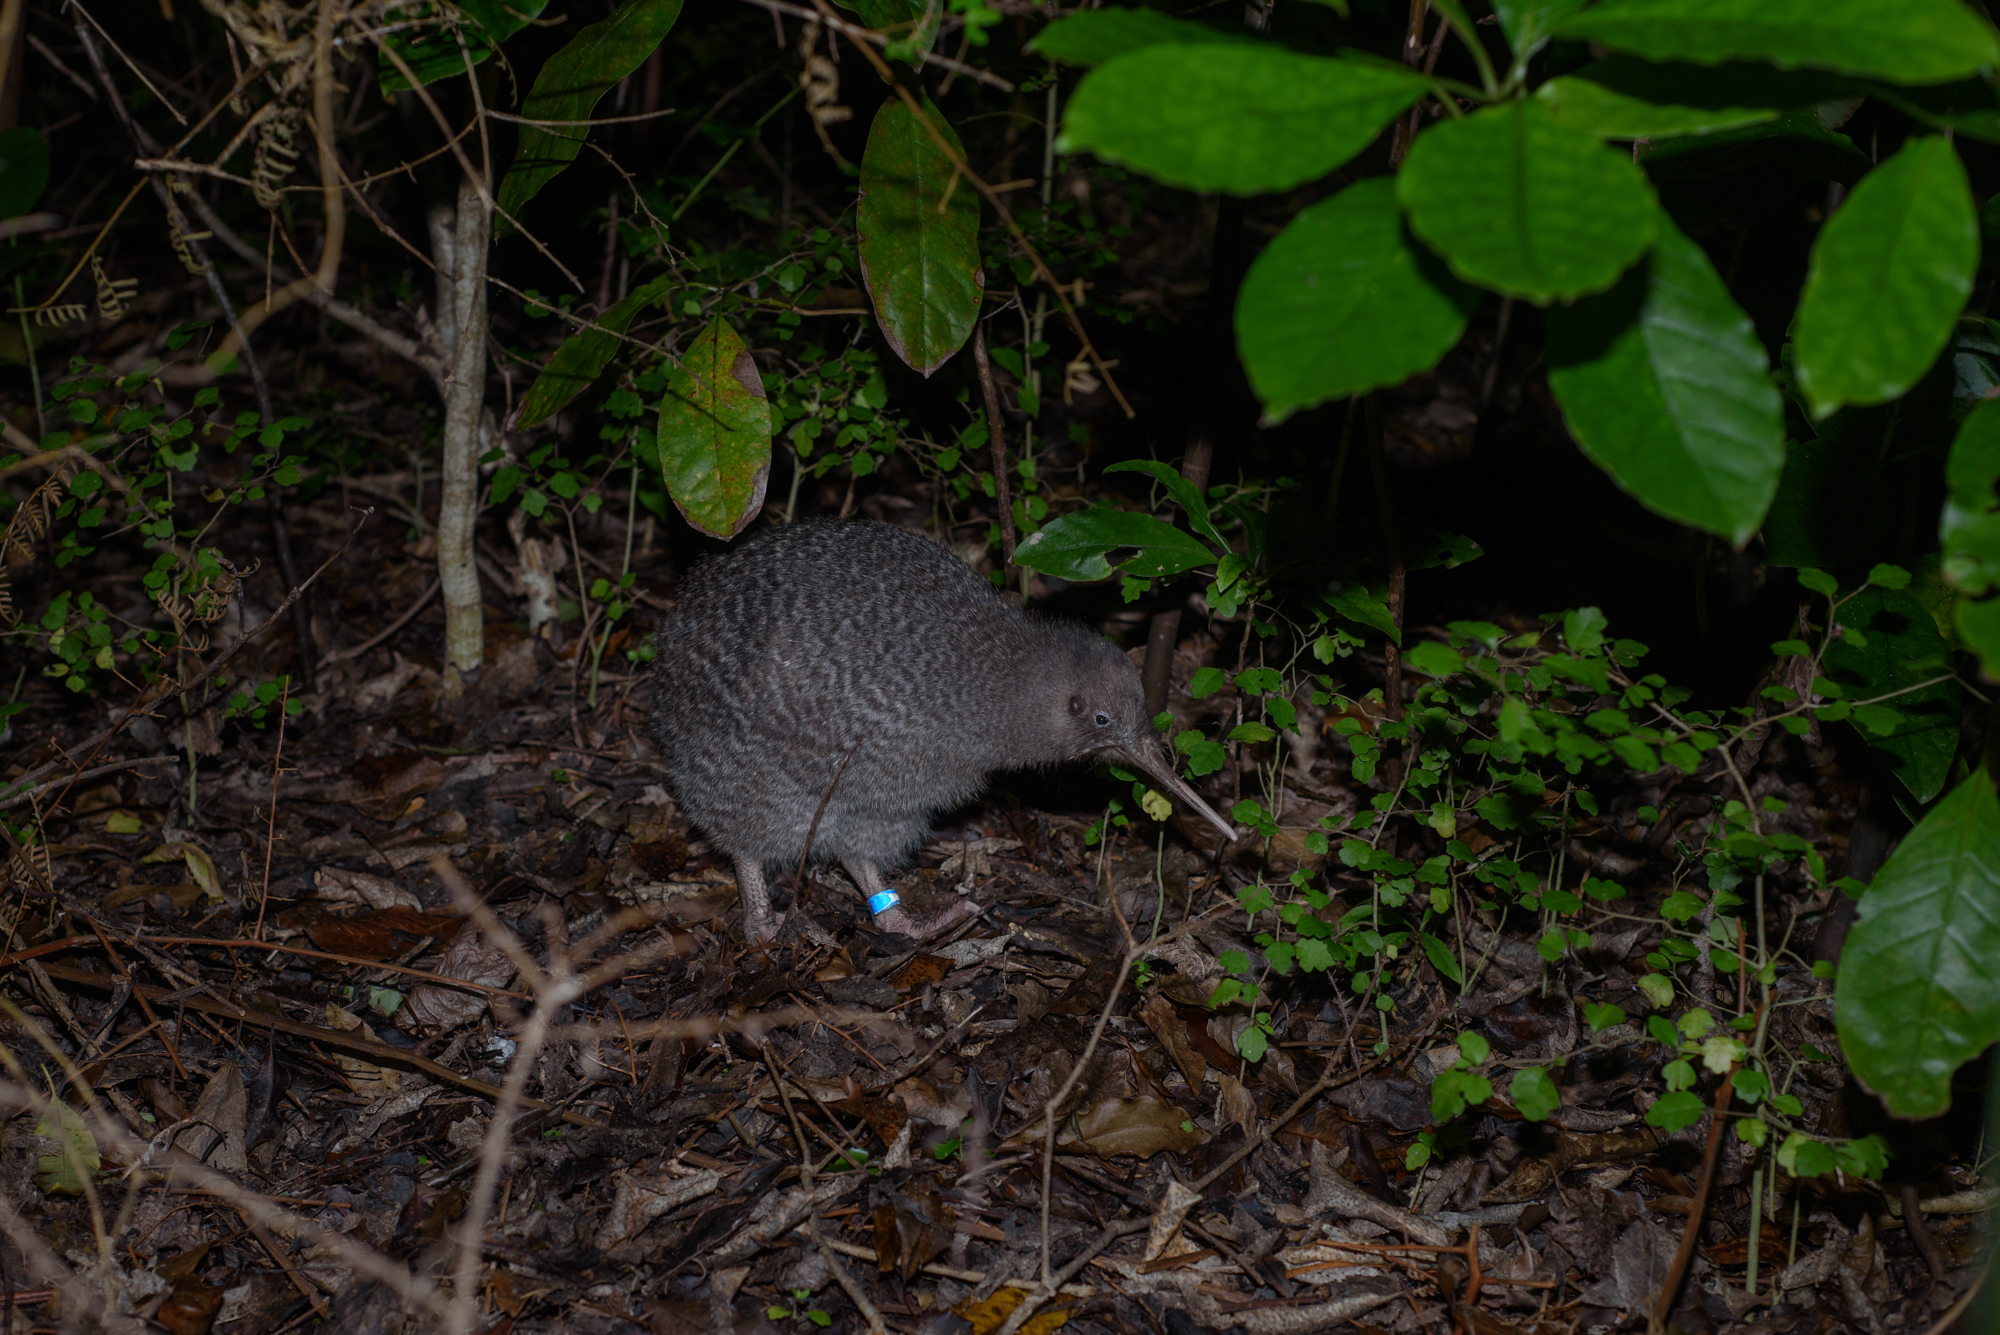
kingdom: Animalia
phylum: Chordata
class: Aves
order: Apterygiformes
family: Apterygidae
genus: Apteryx
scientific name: Apteryx owenii
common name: Little spotted kiwi
